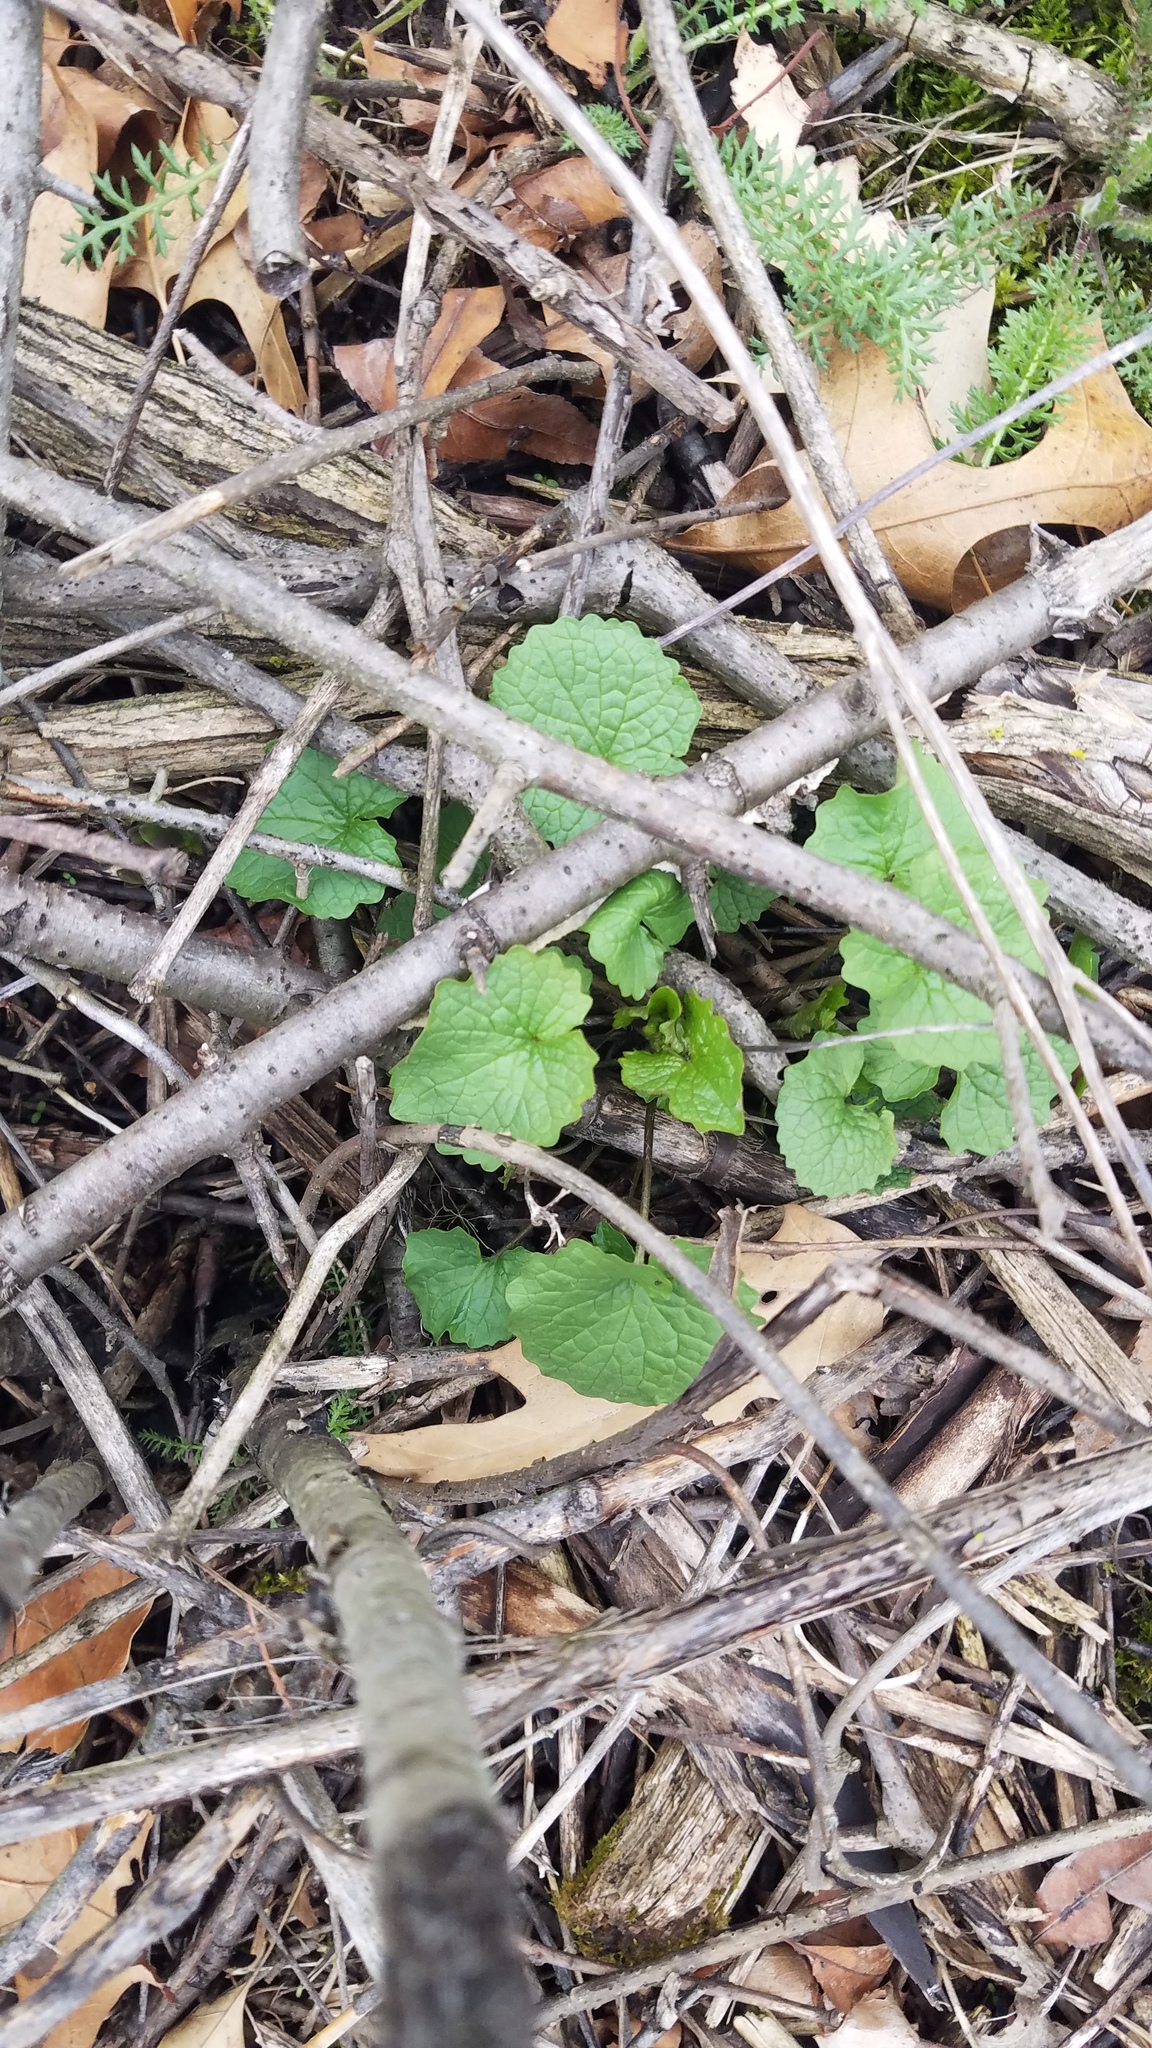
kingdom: Plantae
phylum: Tracheophyta
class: Magnoliopsida
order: Brassicales
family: Brassicaceae
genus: Alliaria
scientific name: Alliaria petiolata
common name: Garlic mustard
